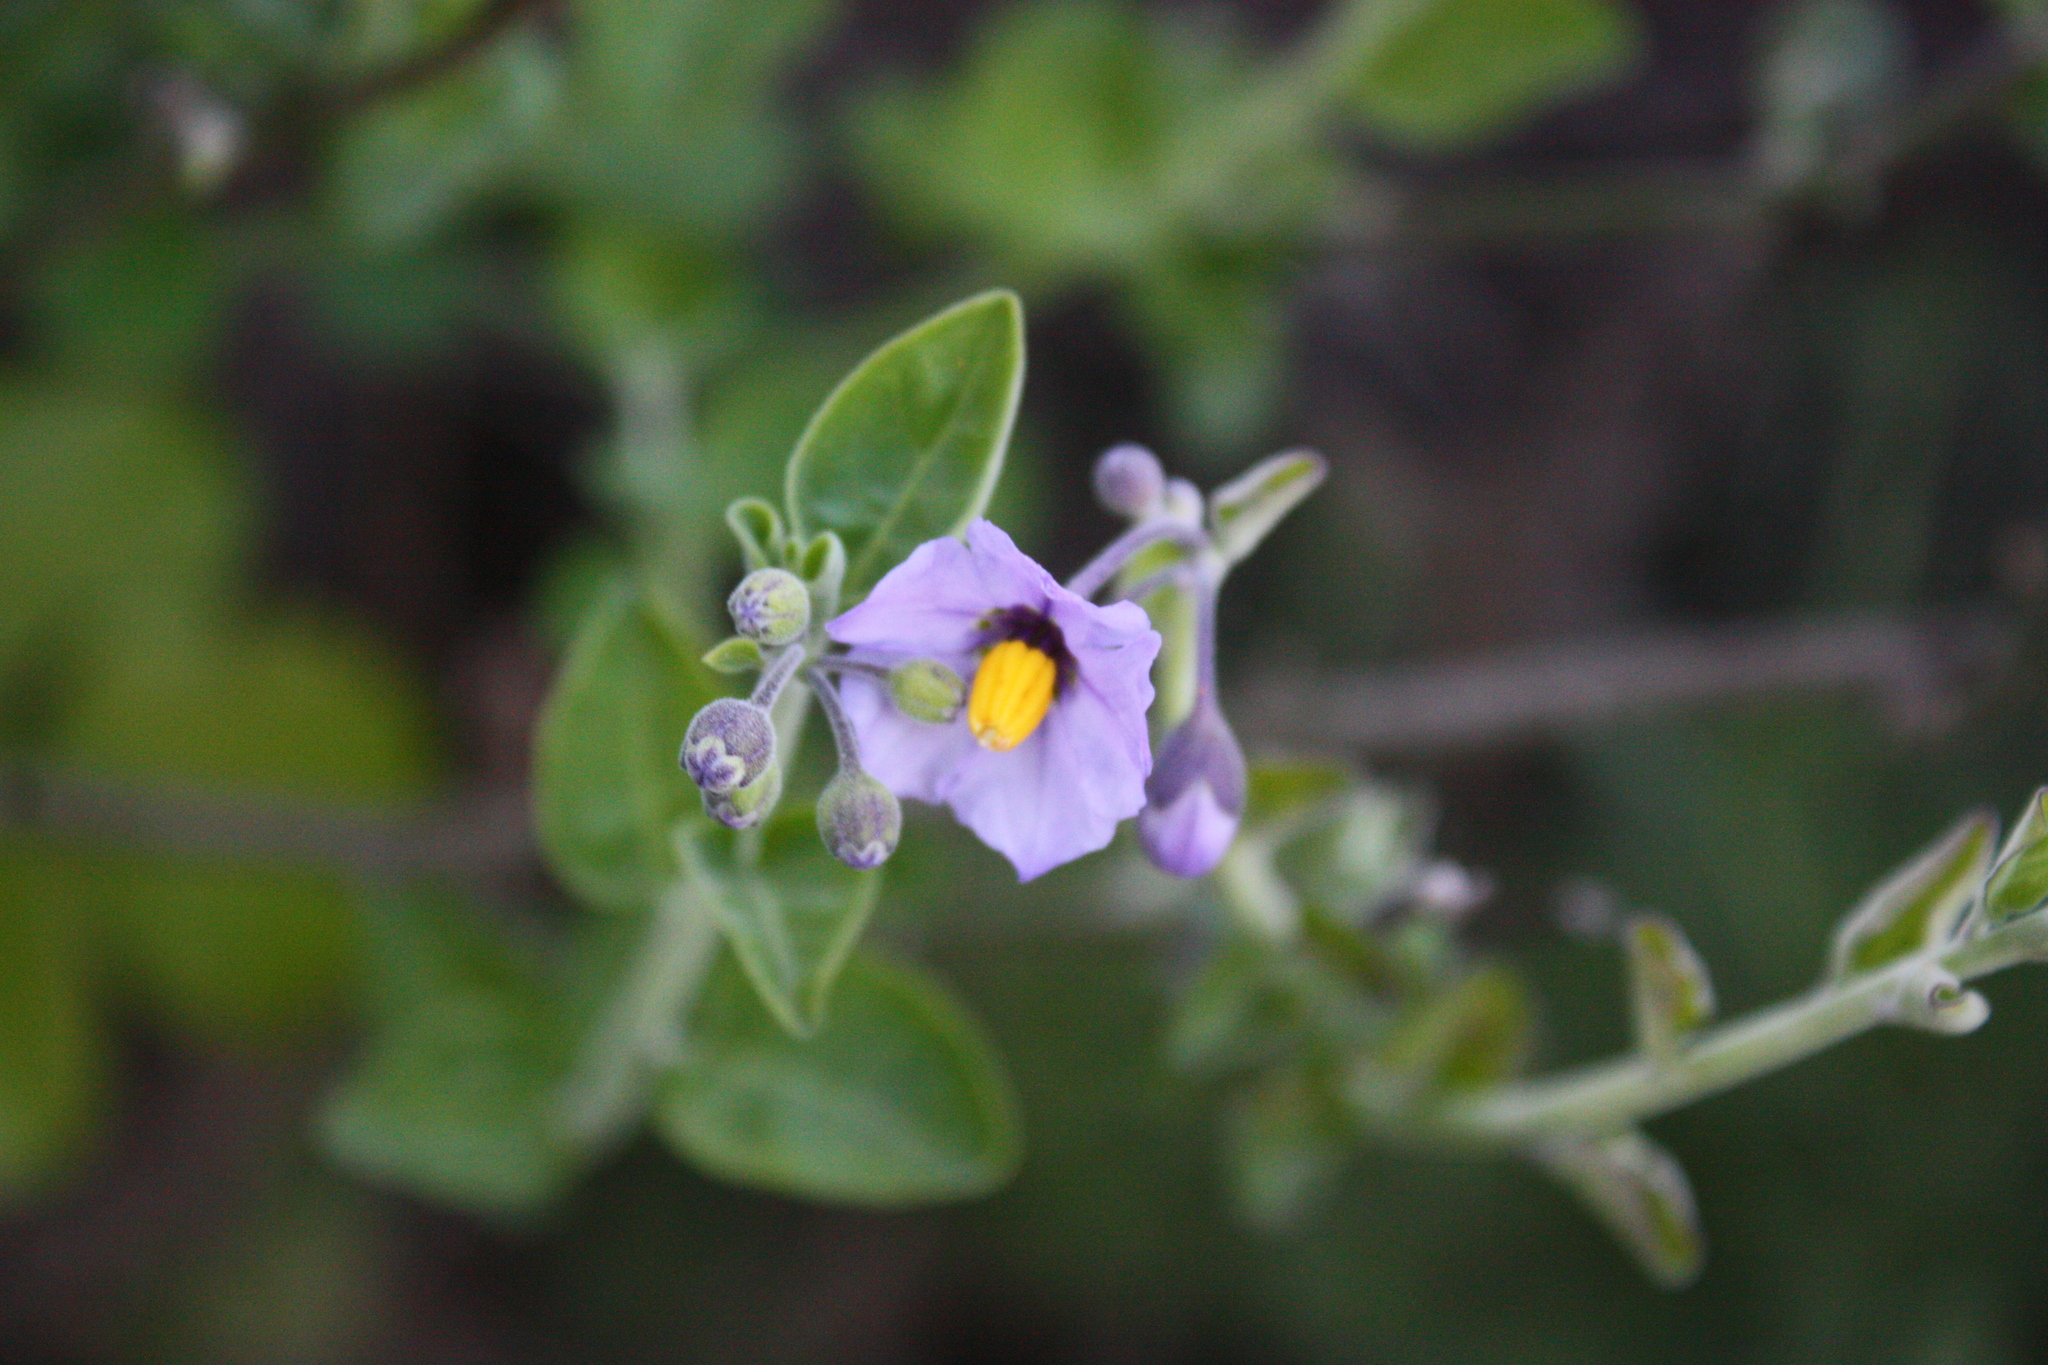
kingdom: Plantae
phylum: Tracheophyta
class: Magnoliopsida
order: Solanales
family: Solanaceae
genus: Solanum
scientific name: Solanum umbelliferum
